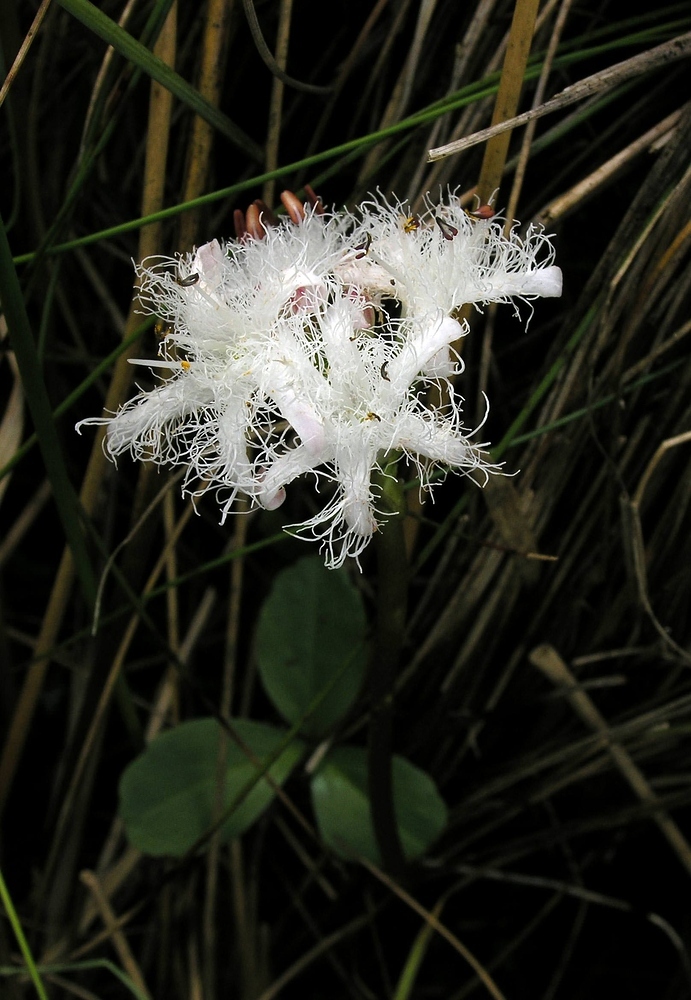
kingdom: Plantae
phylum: Tracheophyta
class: Magnoliopsida
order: Asterales
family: Menyanthaceae
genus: Menyanthes
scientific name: Menyanthes trifoliata
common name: Bogbean
